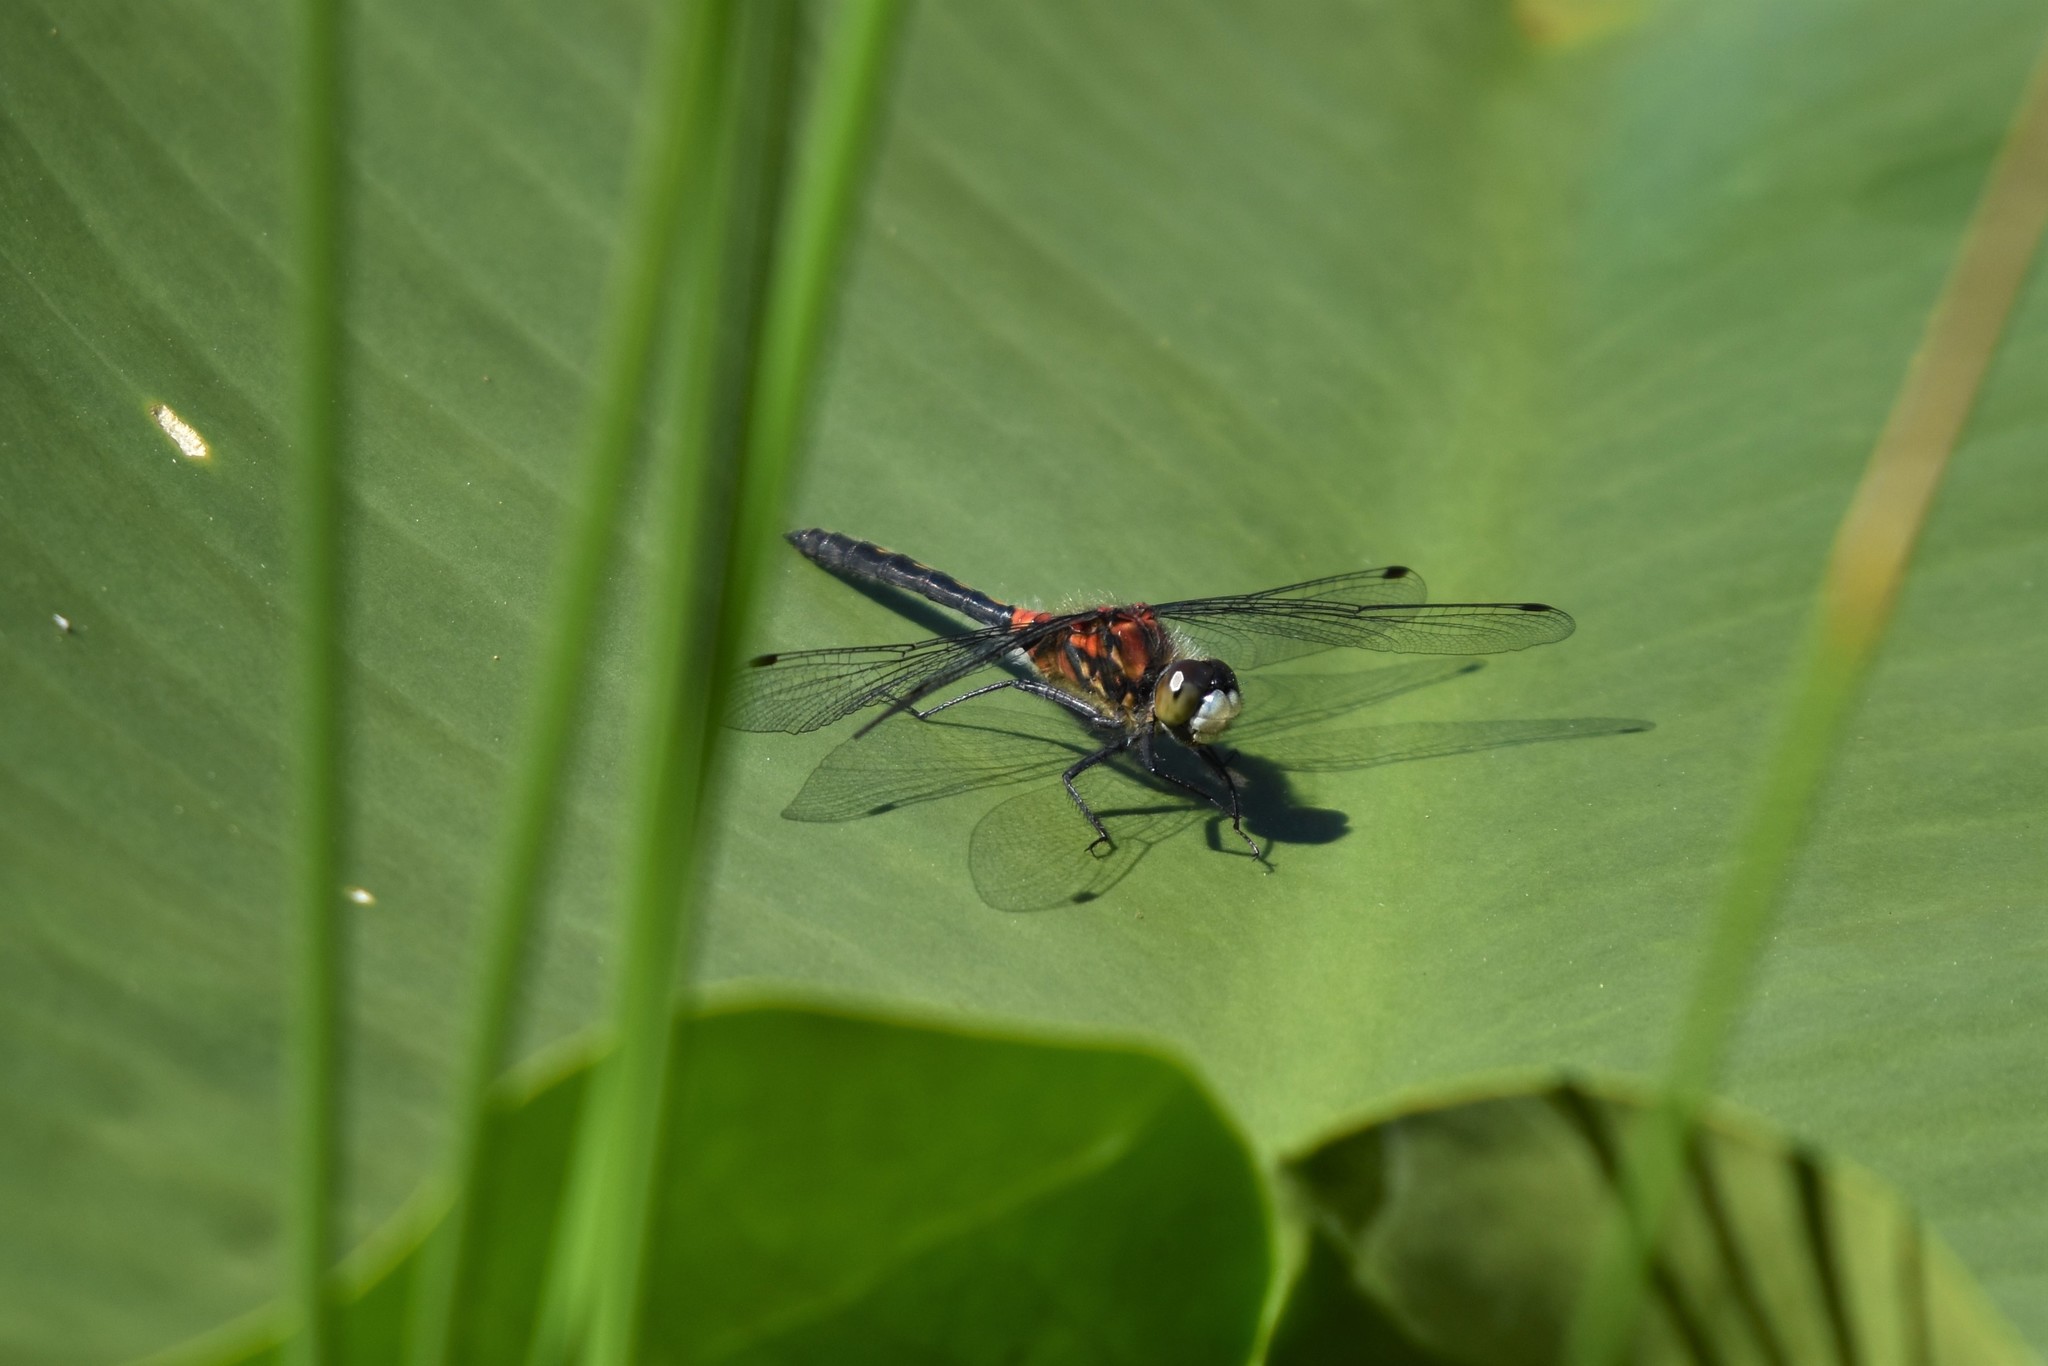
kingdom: Animalia
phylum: Arthropoda
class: Insecta
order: Odonata
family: Libellulidae
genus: Leucorrhinia
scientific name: Leucorrhinia proxima
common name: Belted whiteface
